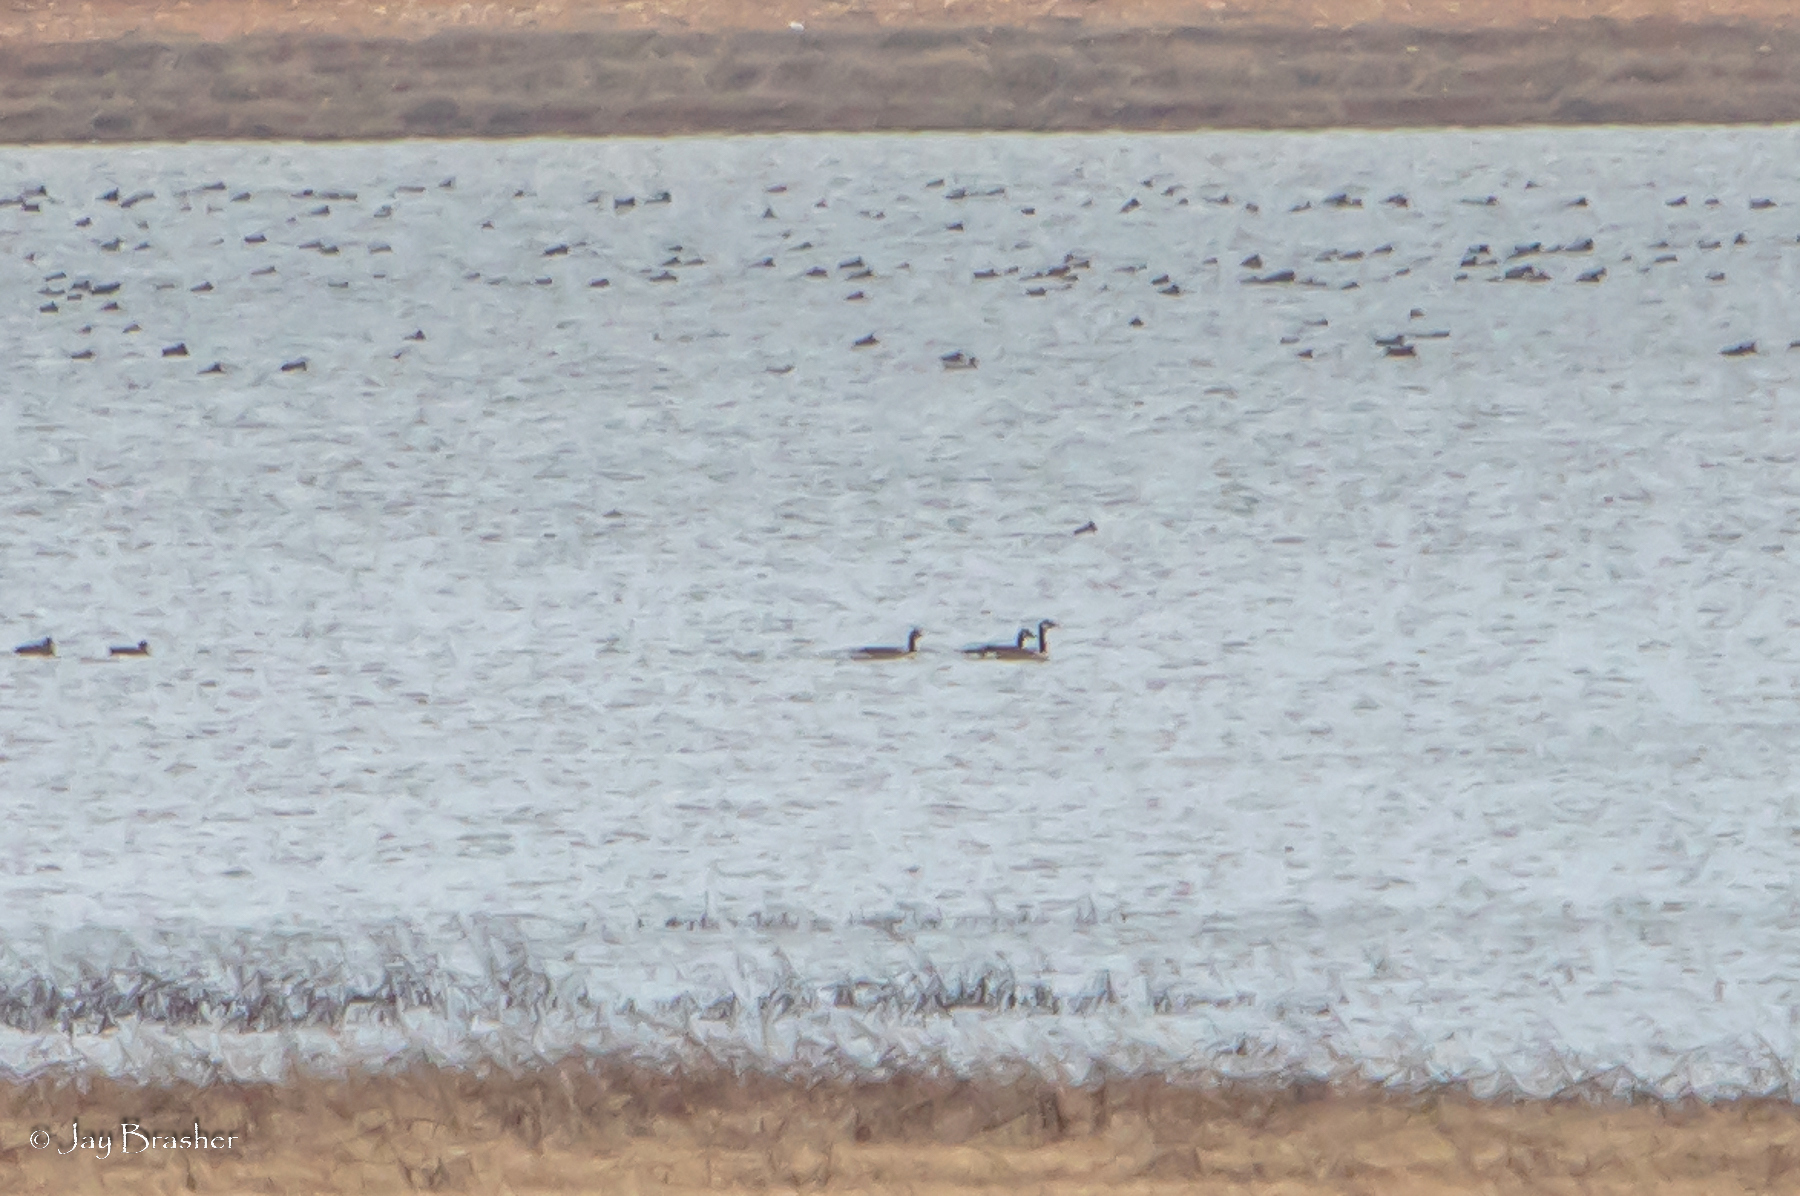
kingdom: Animalia
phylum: Chordata
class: Aves
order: Anseriformes
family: Anatidae
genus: Branta
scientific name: Branta canadensis
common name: Canada goose
